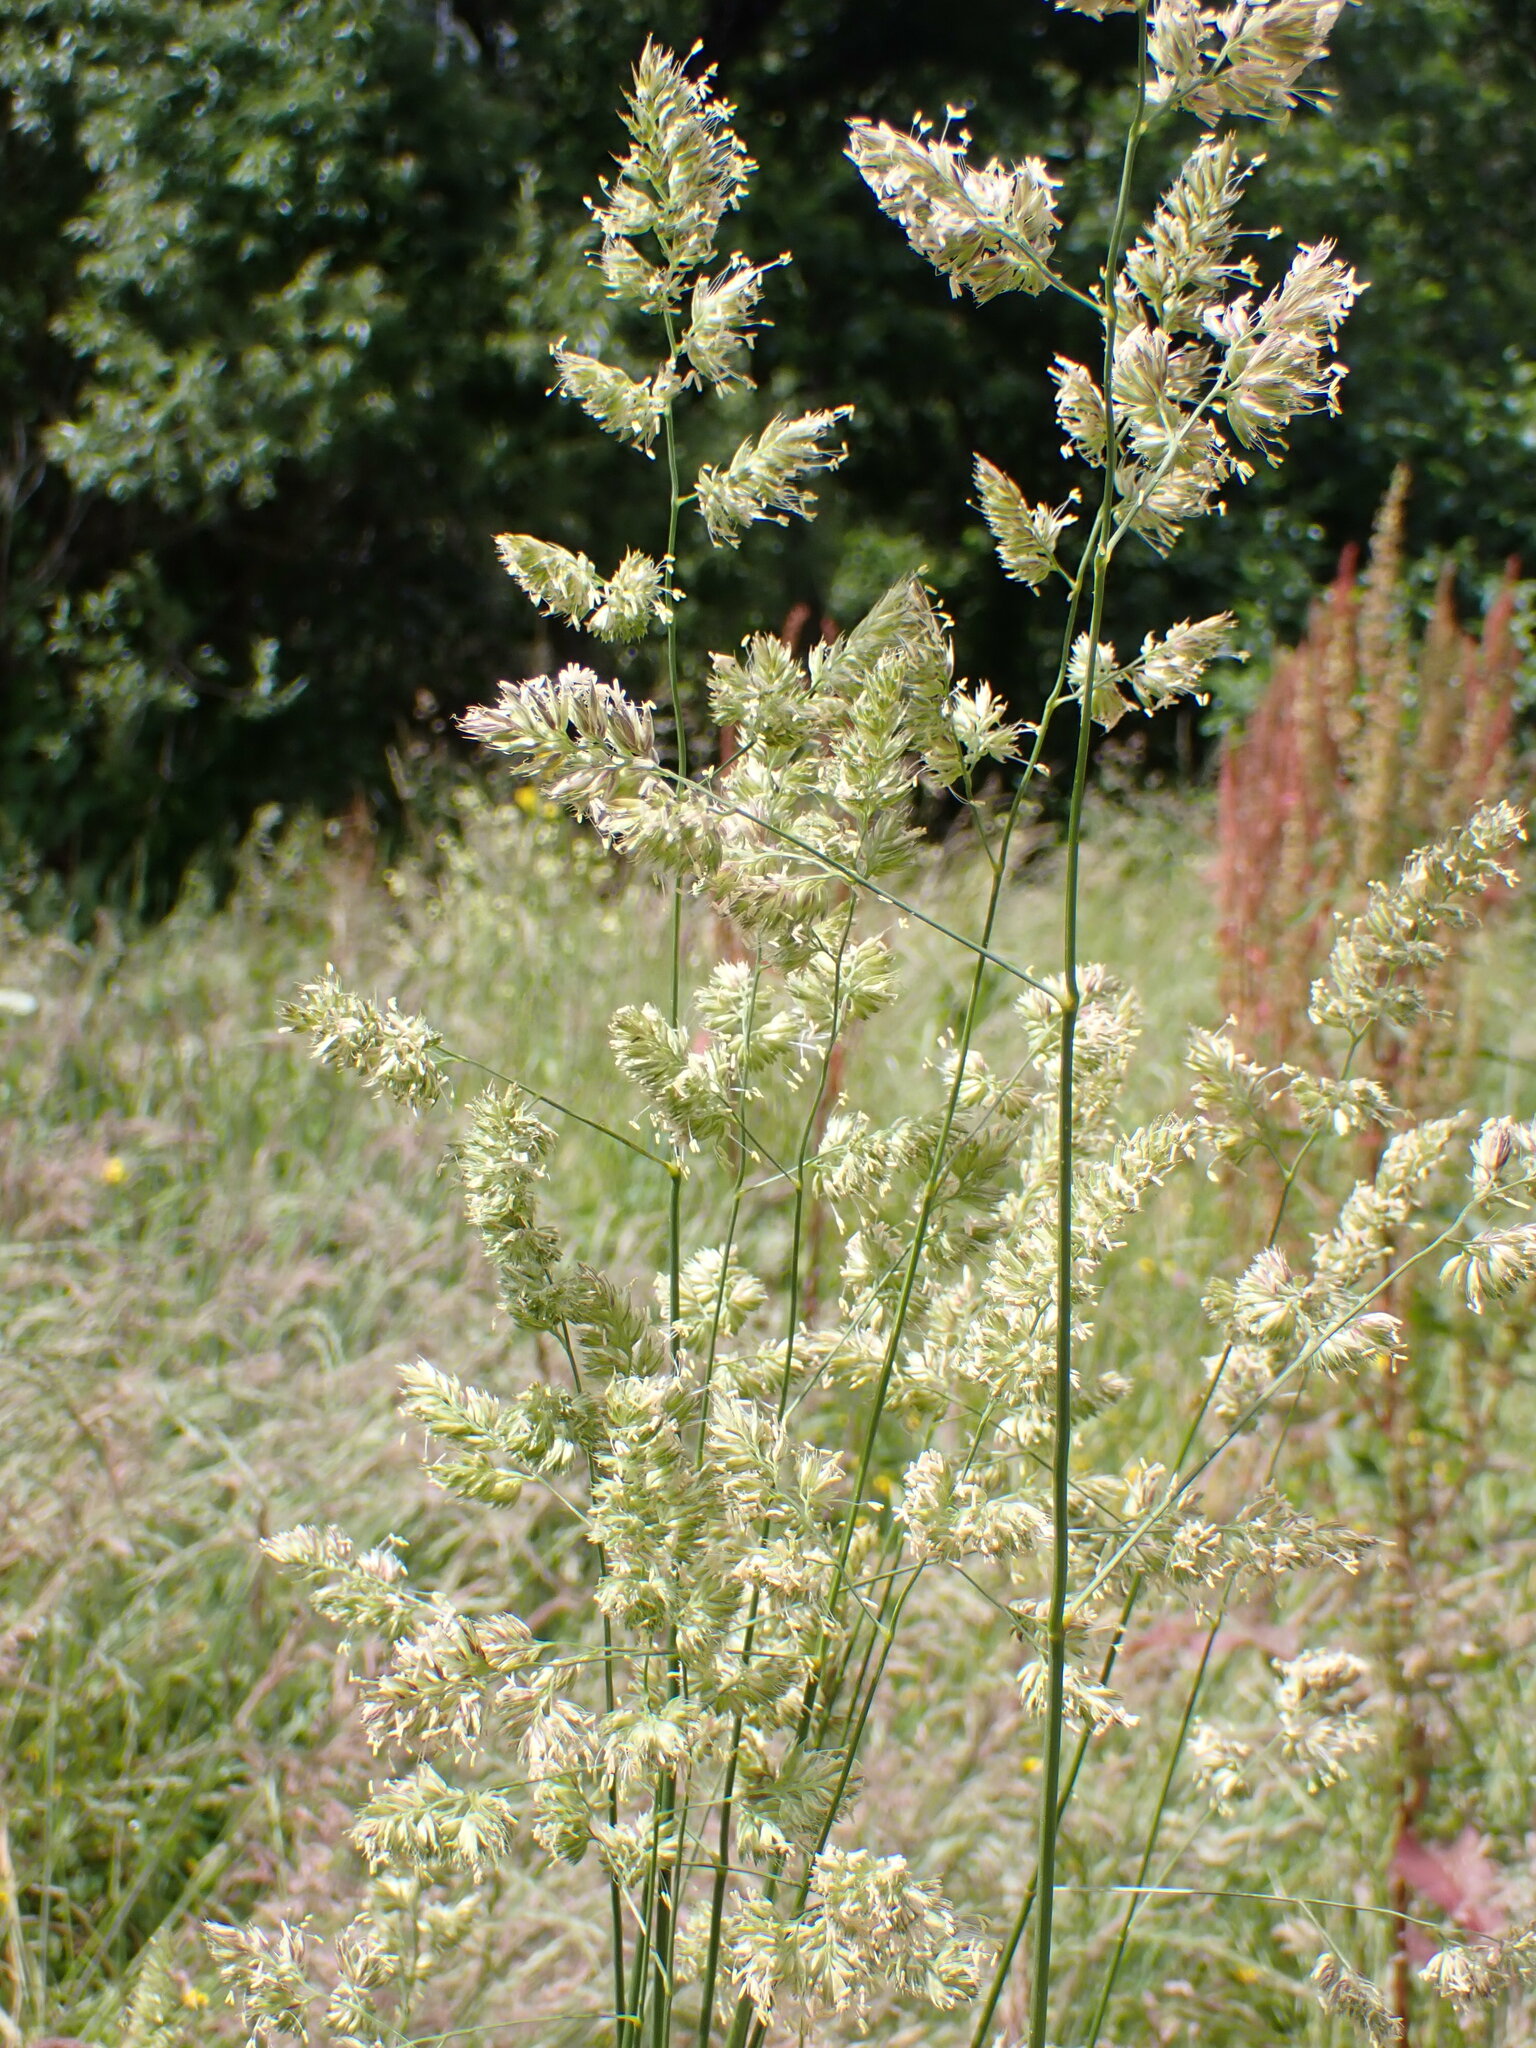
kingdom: Plantae
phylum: Tracheophyta
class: Liliopsida
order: Poales
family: Poaceae
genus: Dactylis
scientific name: Dactylis glomerata
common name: Orchardgrass
